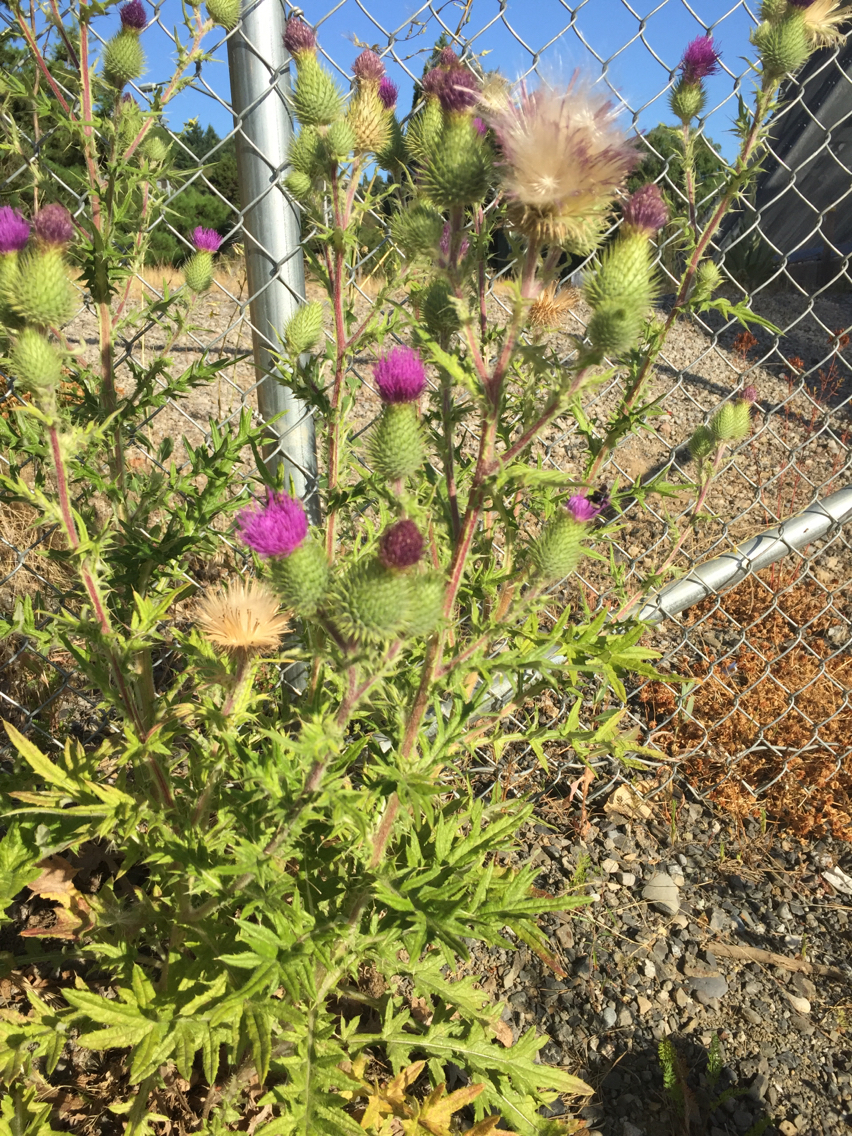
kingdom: Plantae
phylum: Tracheophyta
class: Magnoliopsida
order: Asterales
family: Asteraceae
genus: Cirsium
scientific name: Cirsium vulgare
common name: Bull thistle
